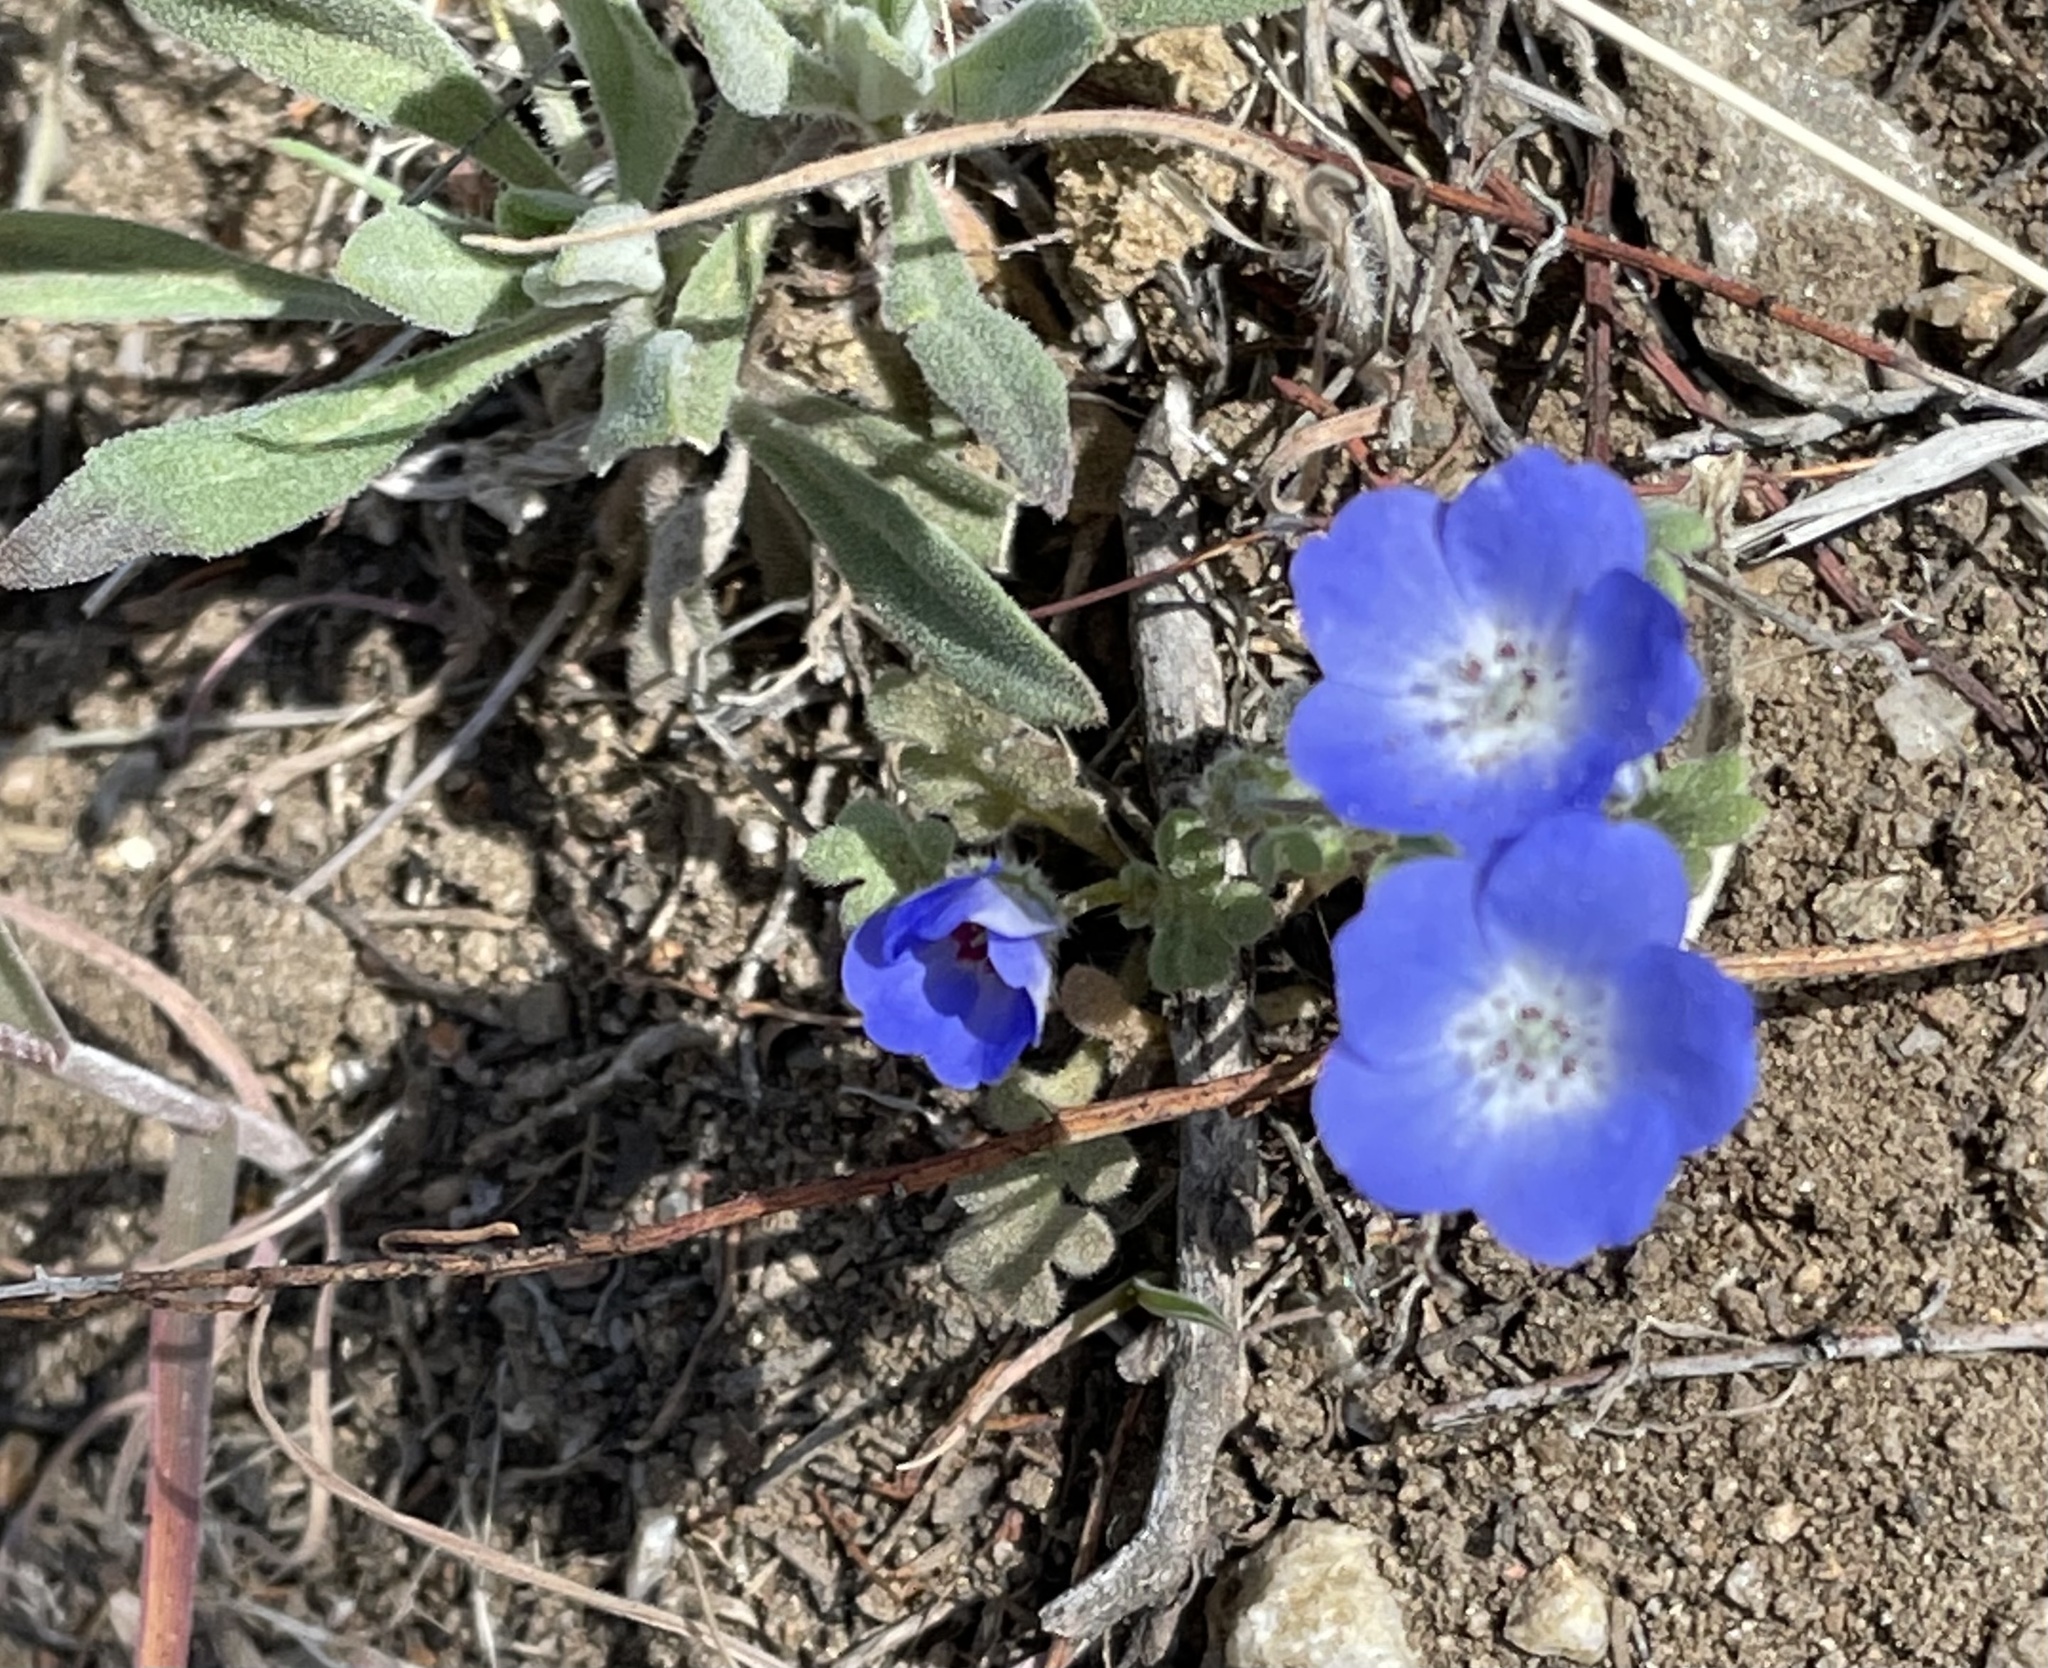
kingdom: Plantae
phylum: Tracheophyta
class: Magnoliopsida
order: Boraginales
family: Hydrophyllaceae
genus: Nemophila
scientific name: Nemophila menziesii
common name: Baby's-blue-eyes
